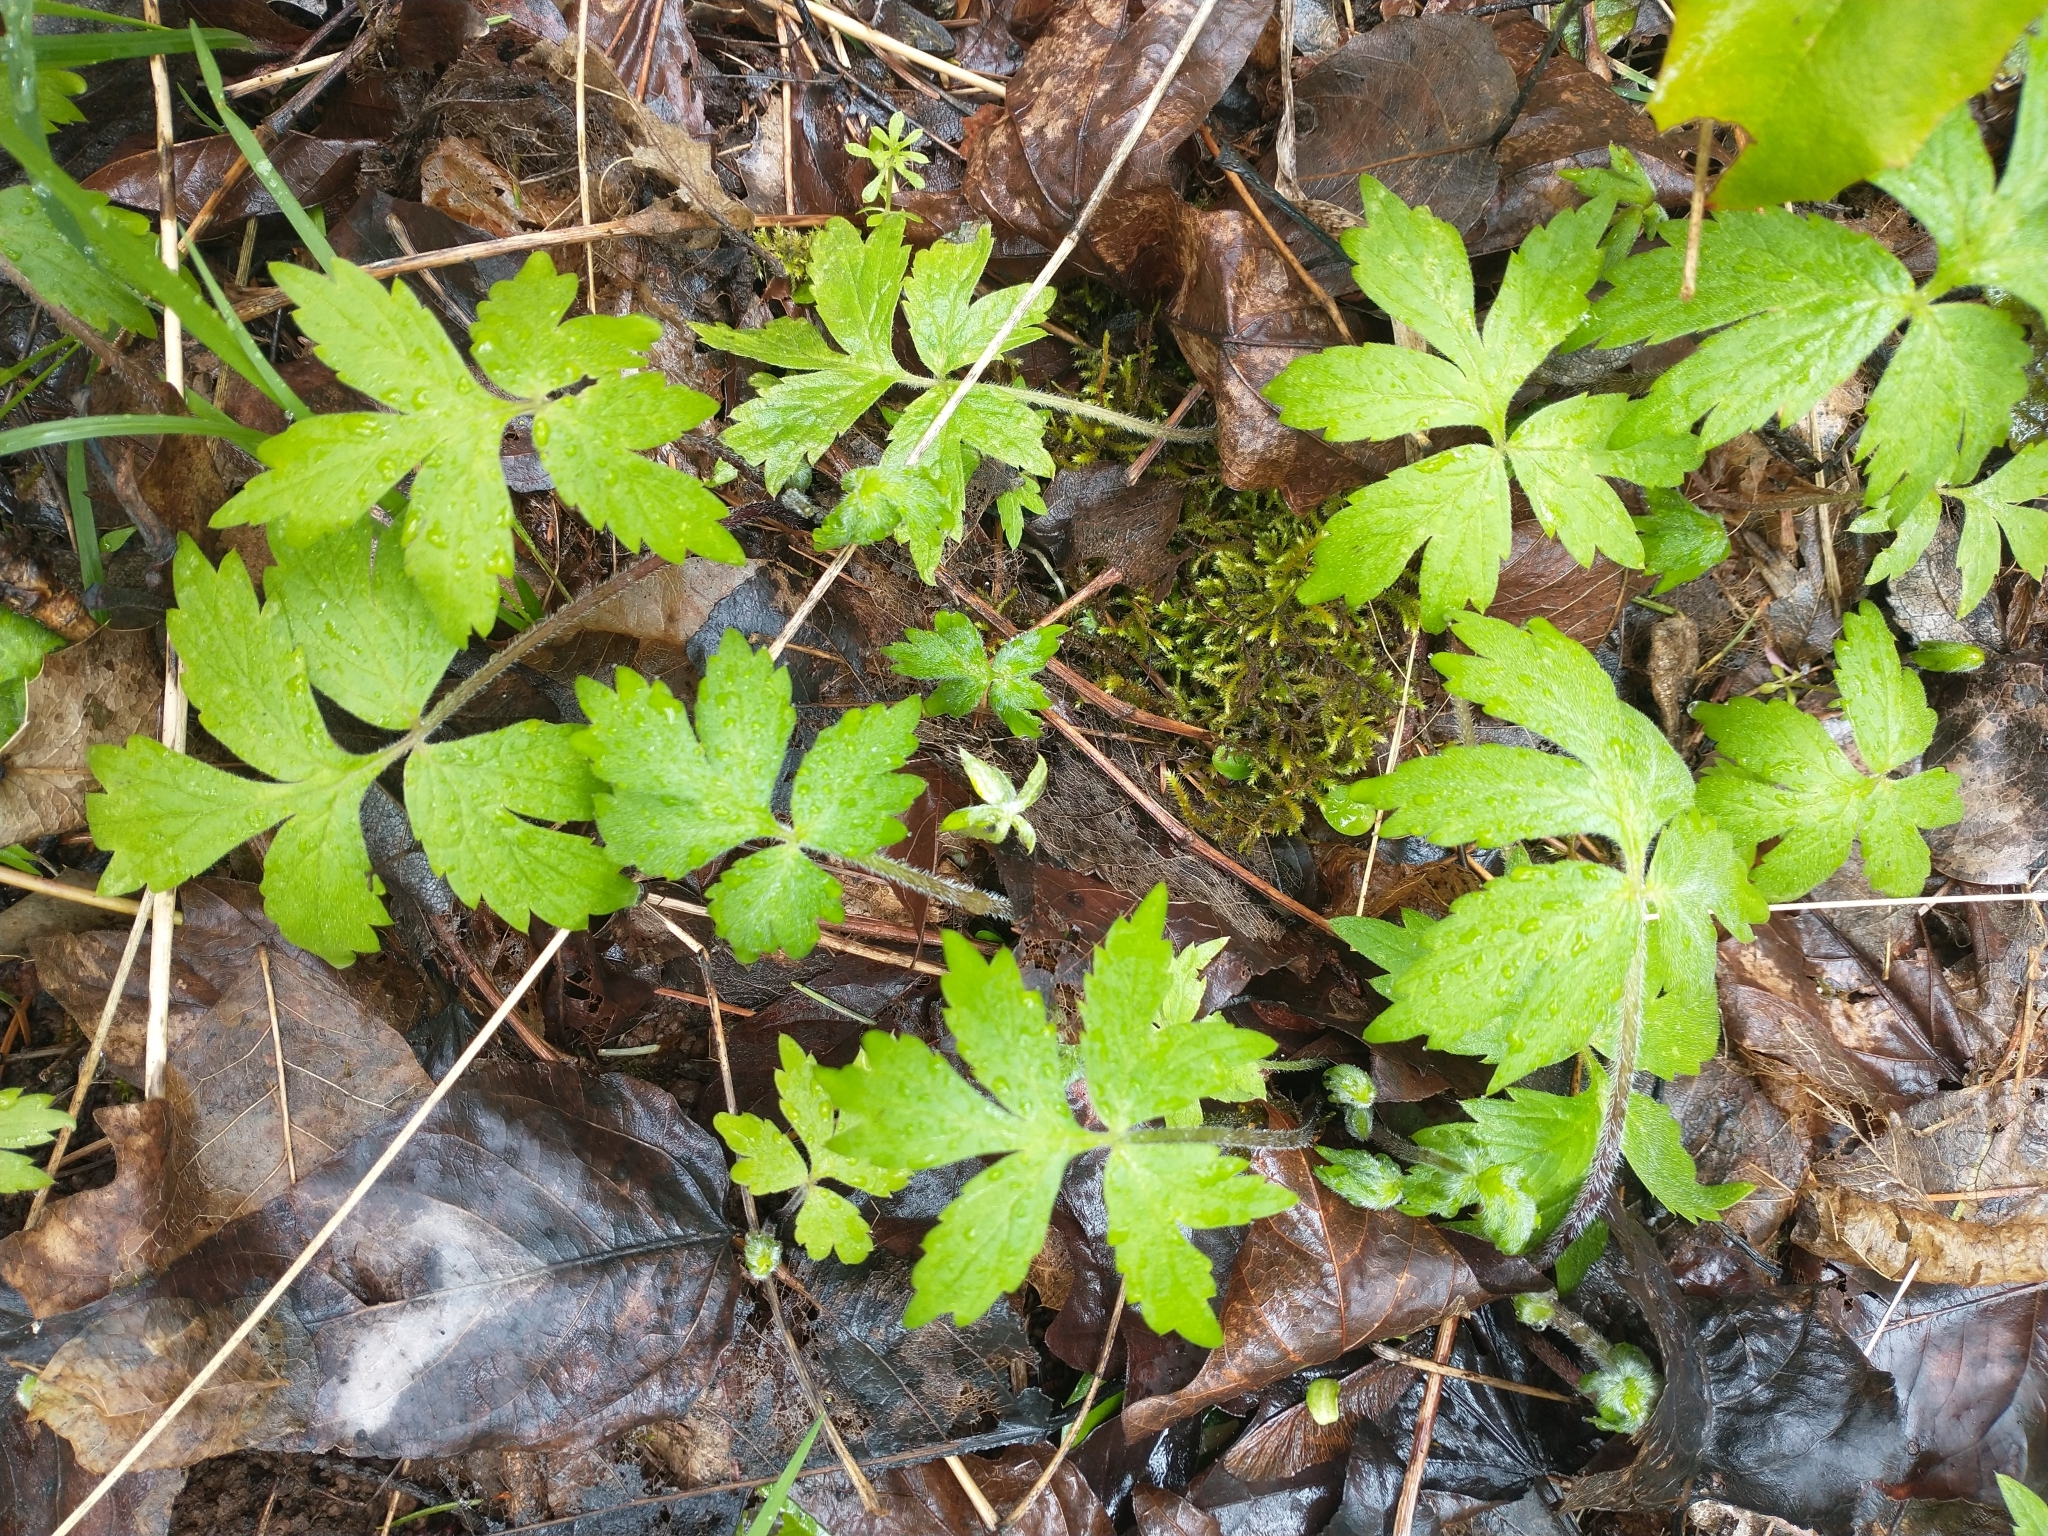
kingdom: Plantae
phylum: Tracheophyta
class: Magnoliopsida
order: Boraginales
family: Hydrophyllaceae
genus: Hydrophyllum
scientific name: Hydrophyllum tenuipes
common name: Pacific waterleaf
